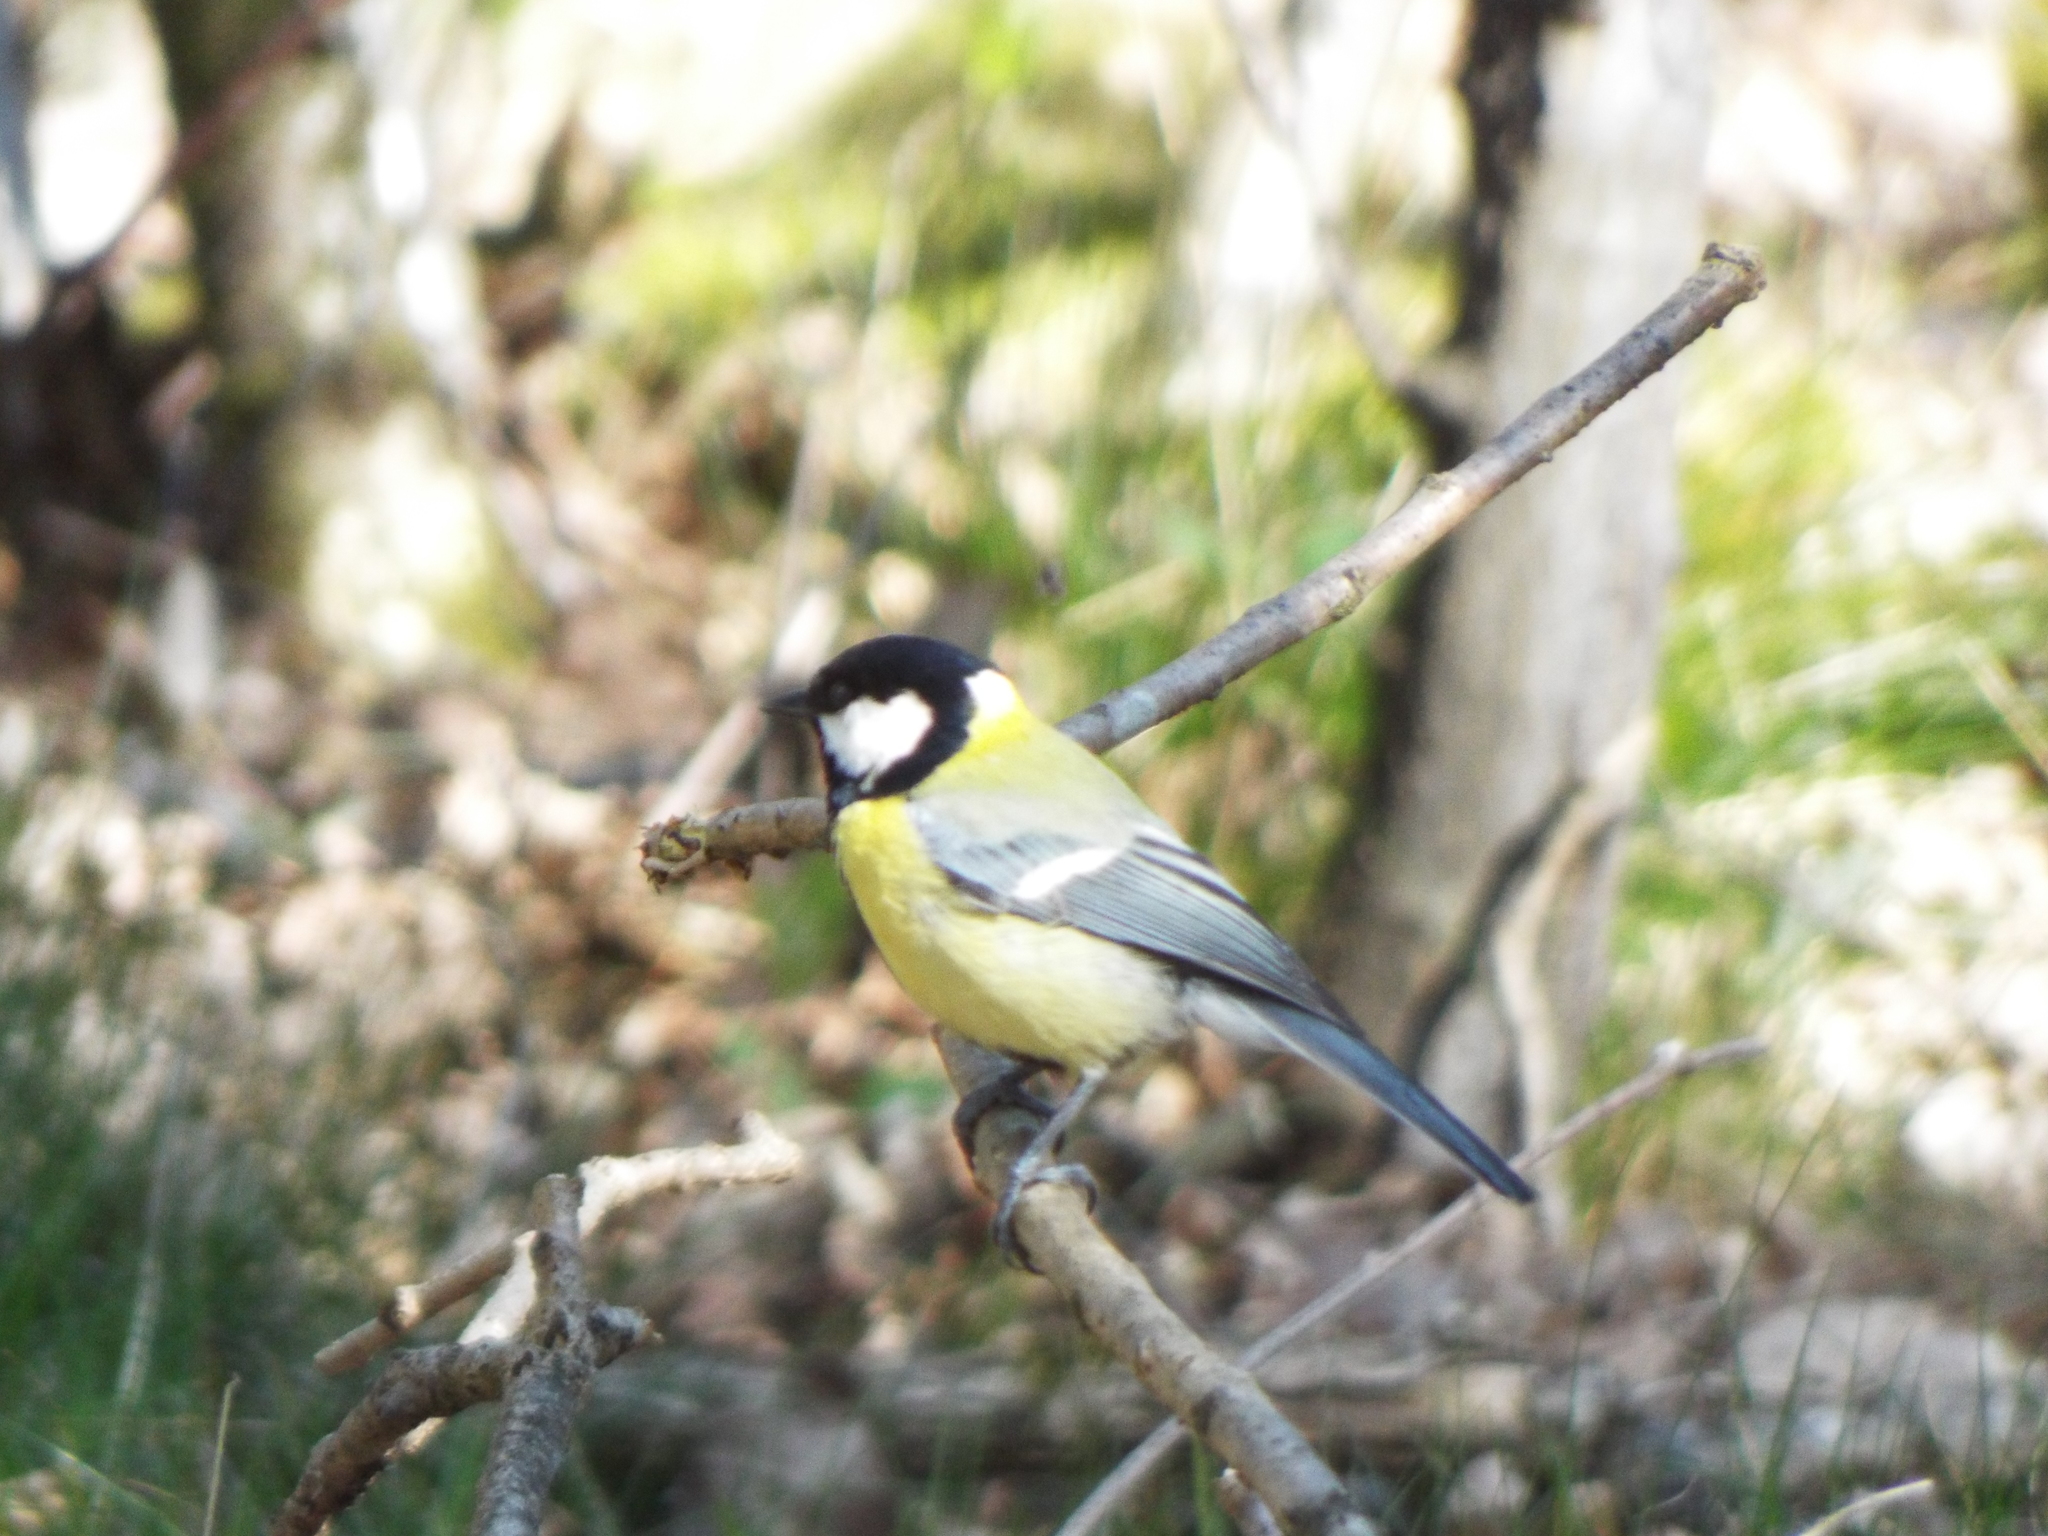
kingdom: Animalia
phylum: Chordata
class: Aves
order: Passeriformes
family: Paridae
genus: Parus
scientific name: Parus major
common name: Great tit
